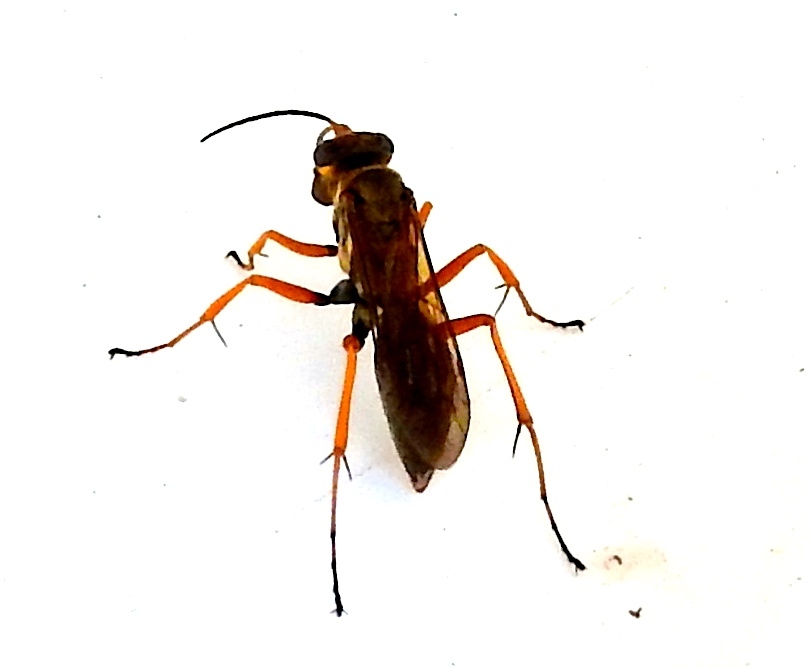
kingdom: Animalia
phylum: Arthropoda
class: Insecta
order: Hymenoptera
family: Pompilidae
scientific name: Pompilidae
